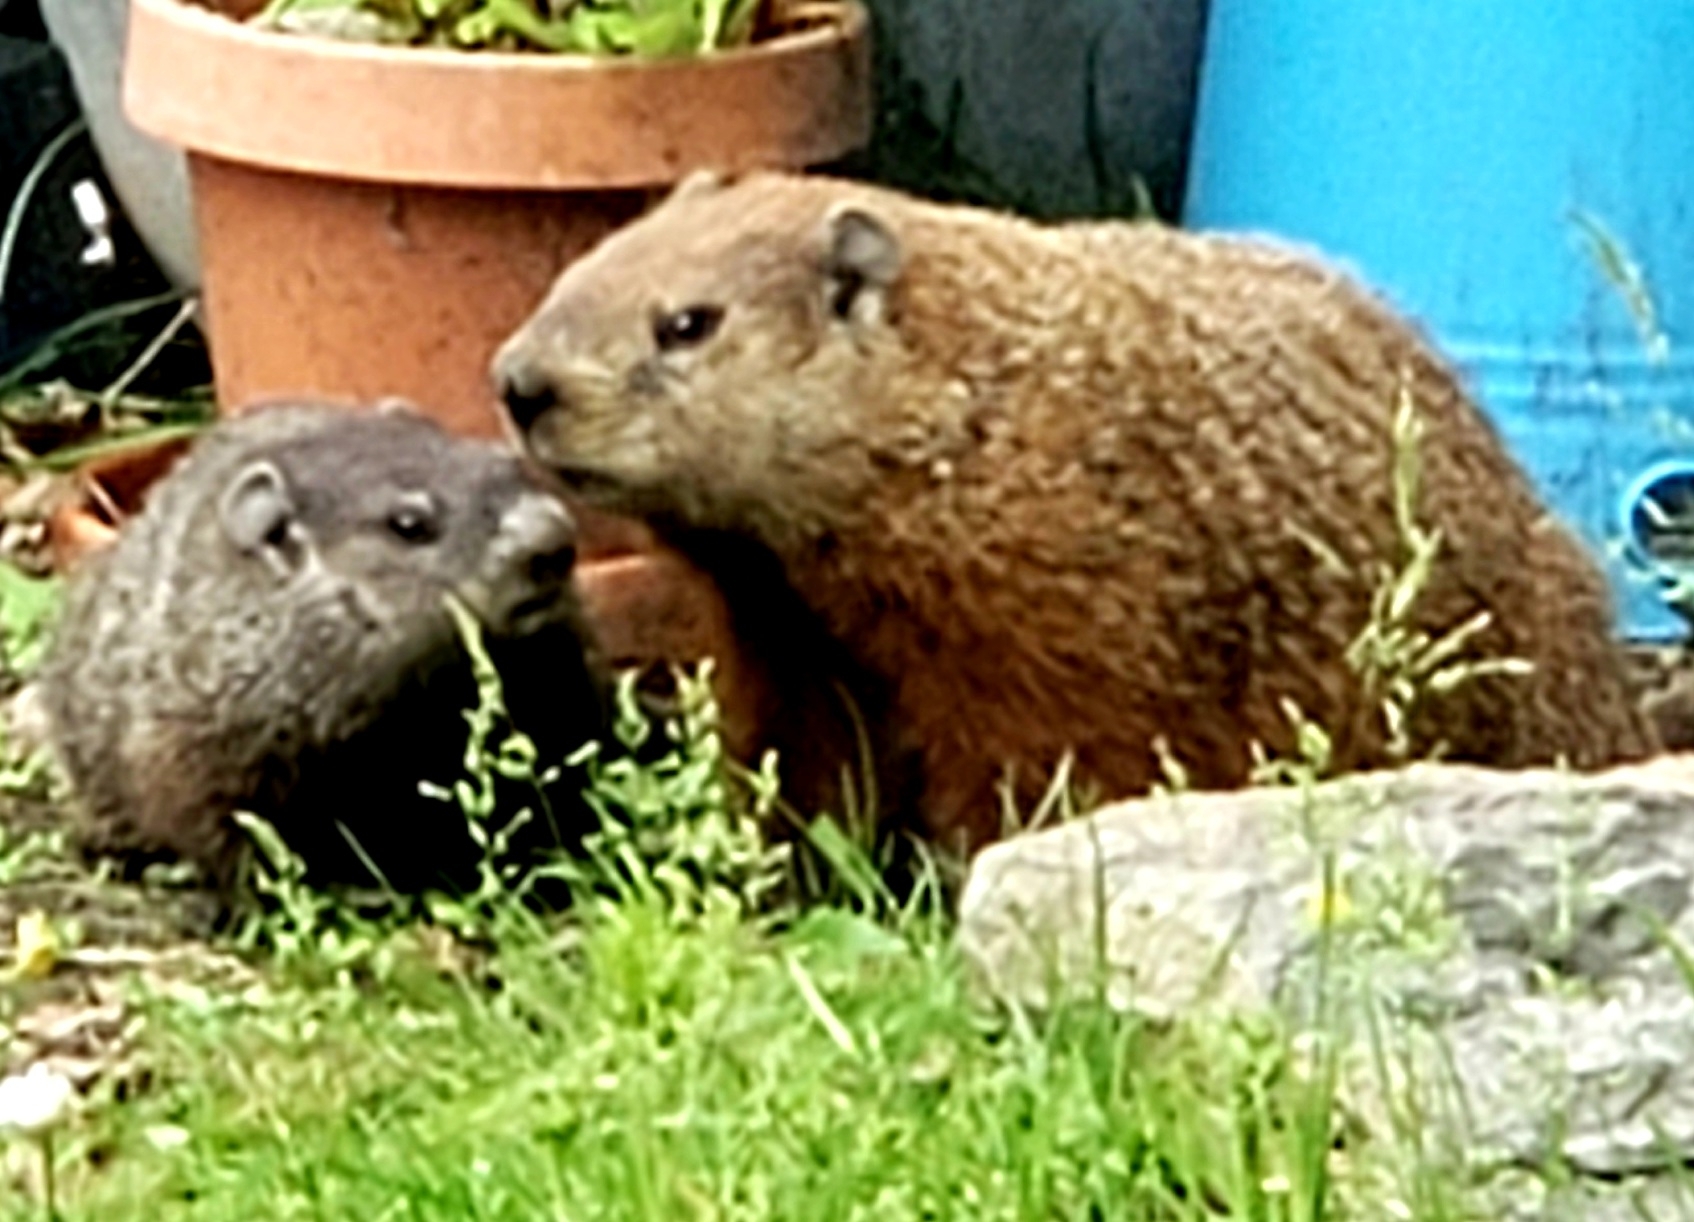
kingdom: Animalia
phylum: Chordata
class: Mammalia
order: Rodentia
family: Sciuridae
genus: Marmota
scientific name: Marmota monax
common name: Groundhog
